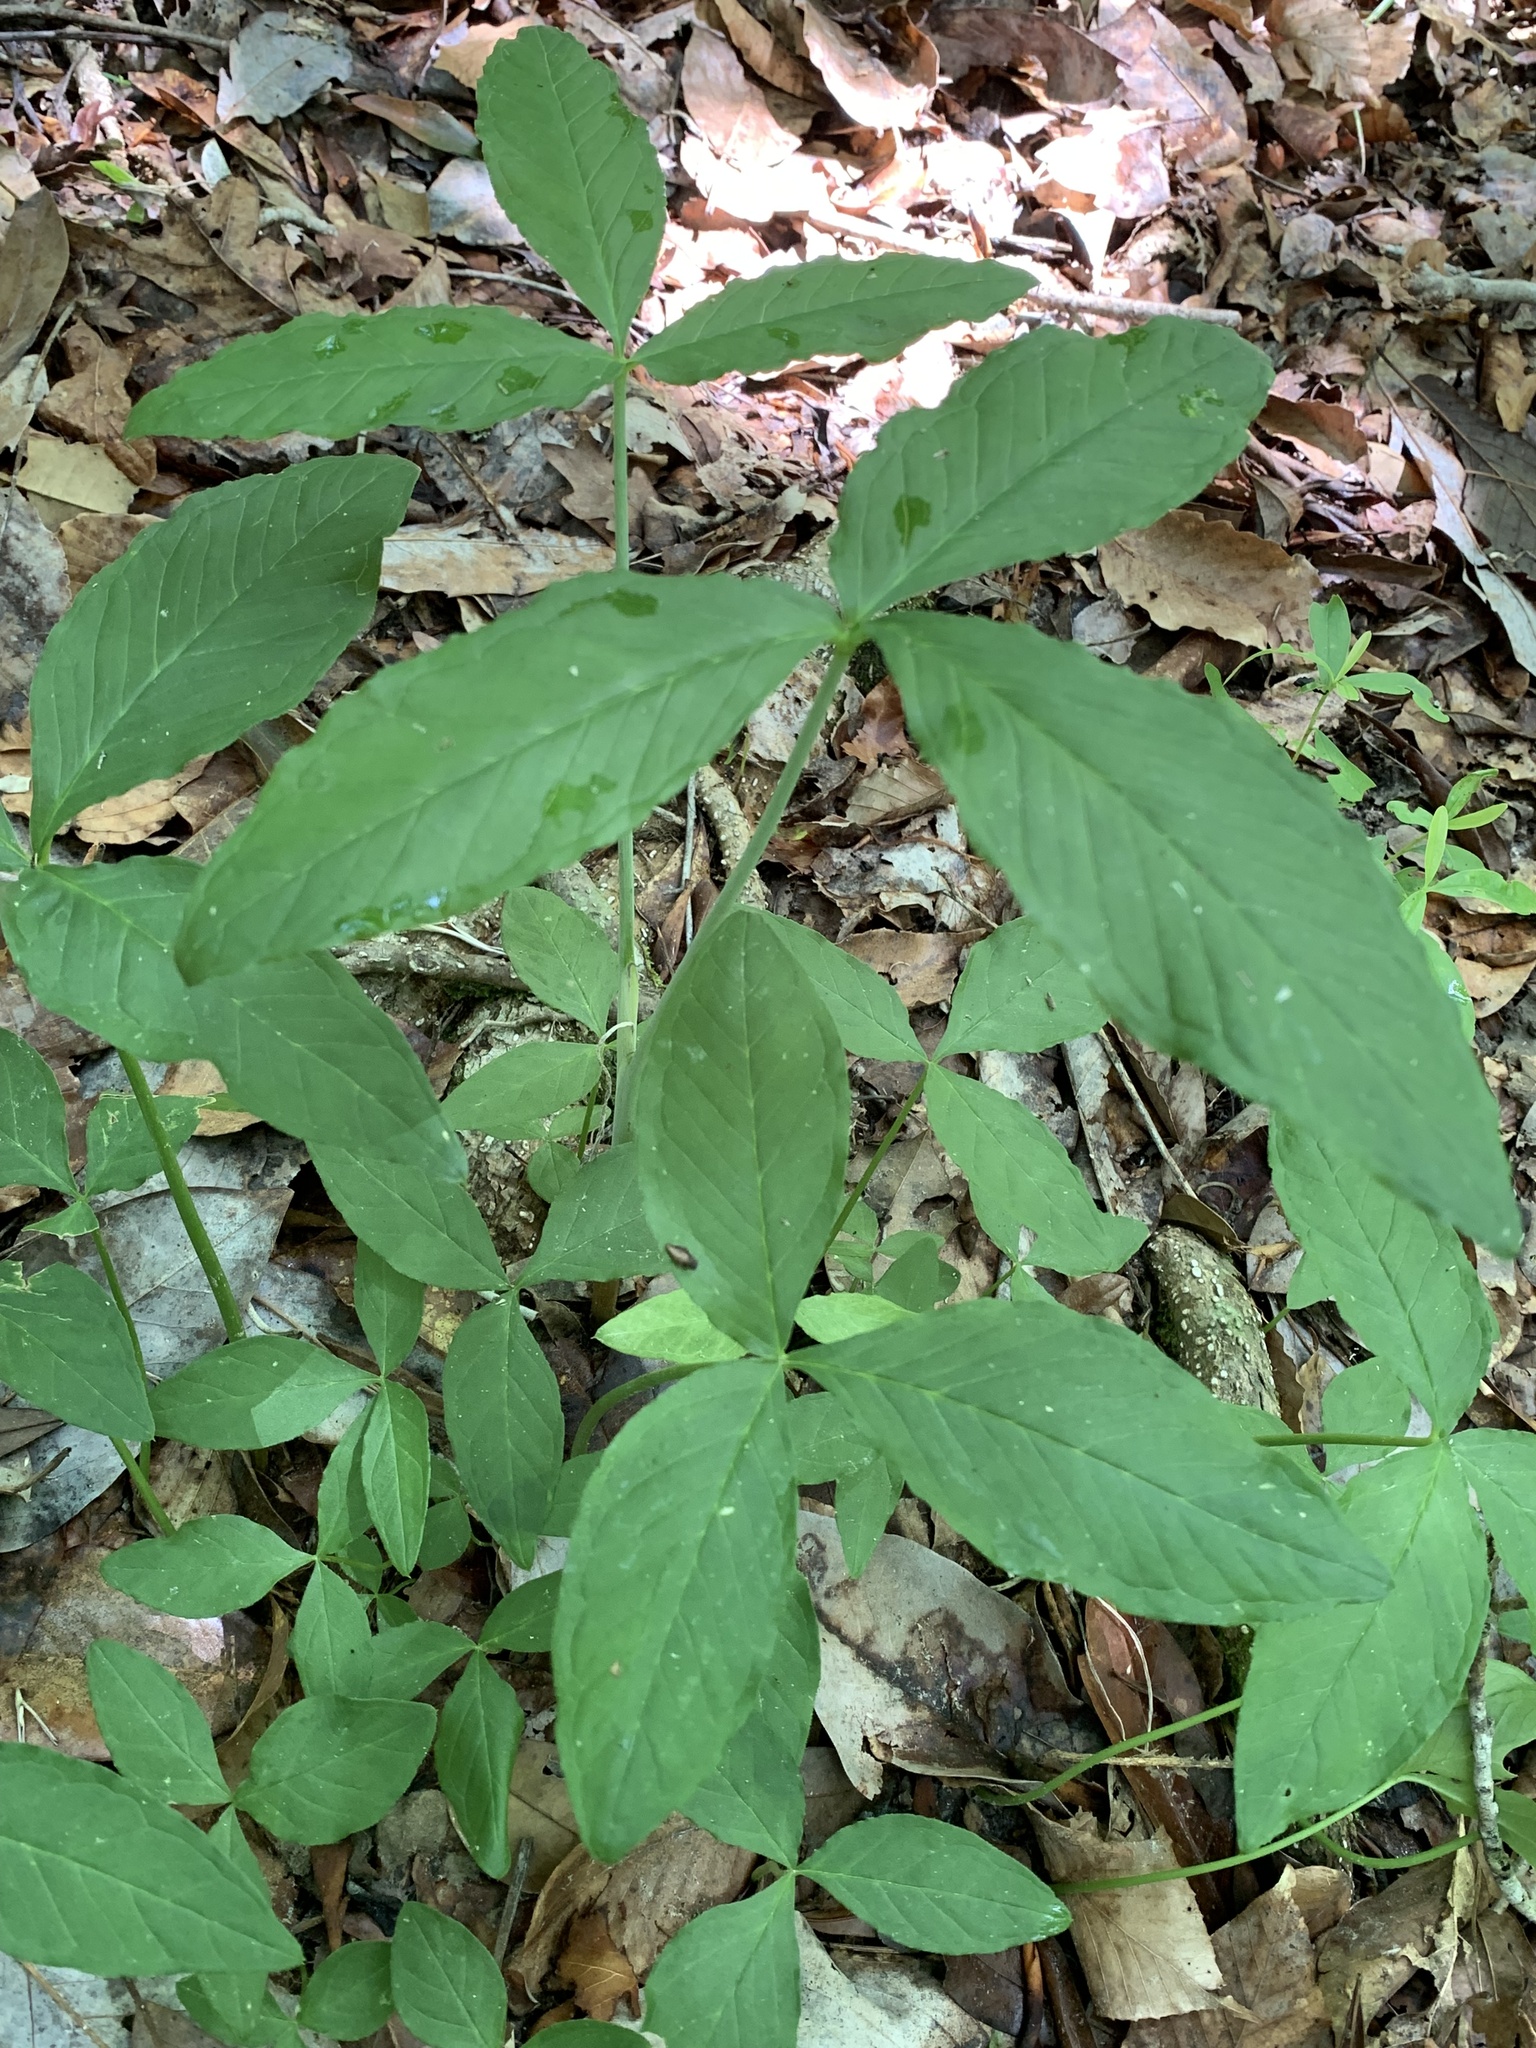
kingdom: Plantae
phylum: Tracheophyta
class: Liliopsida
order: Alismatales
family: Araceae
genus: Arisaema
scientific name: Arisaema triphyllum
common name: Jack-in-the-pulpit
